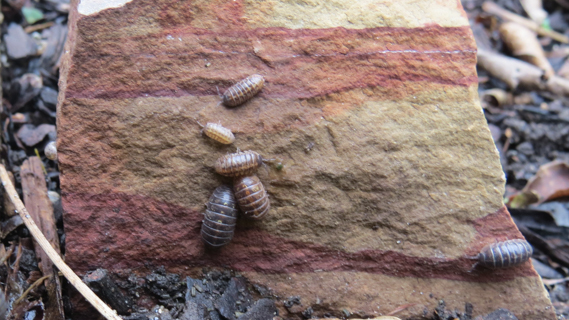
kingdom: Animalia
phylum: Arthropoda
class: Malacostraca
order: Isopoda
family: Armadillidiidae
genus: Armadillidium
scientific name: Armadillidium vulgare
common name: Common pill woodlouse
